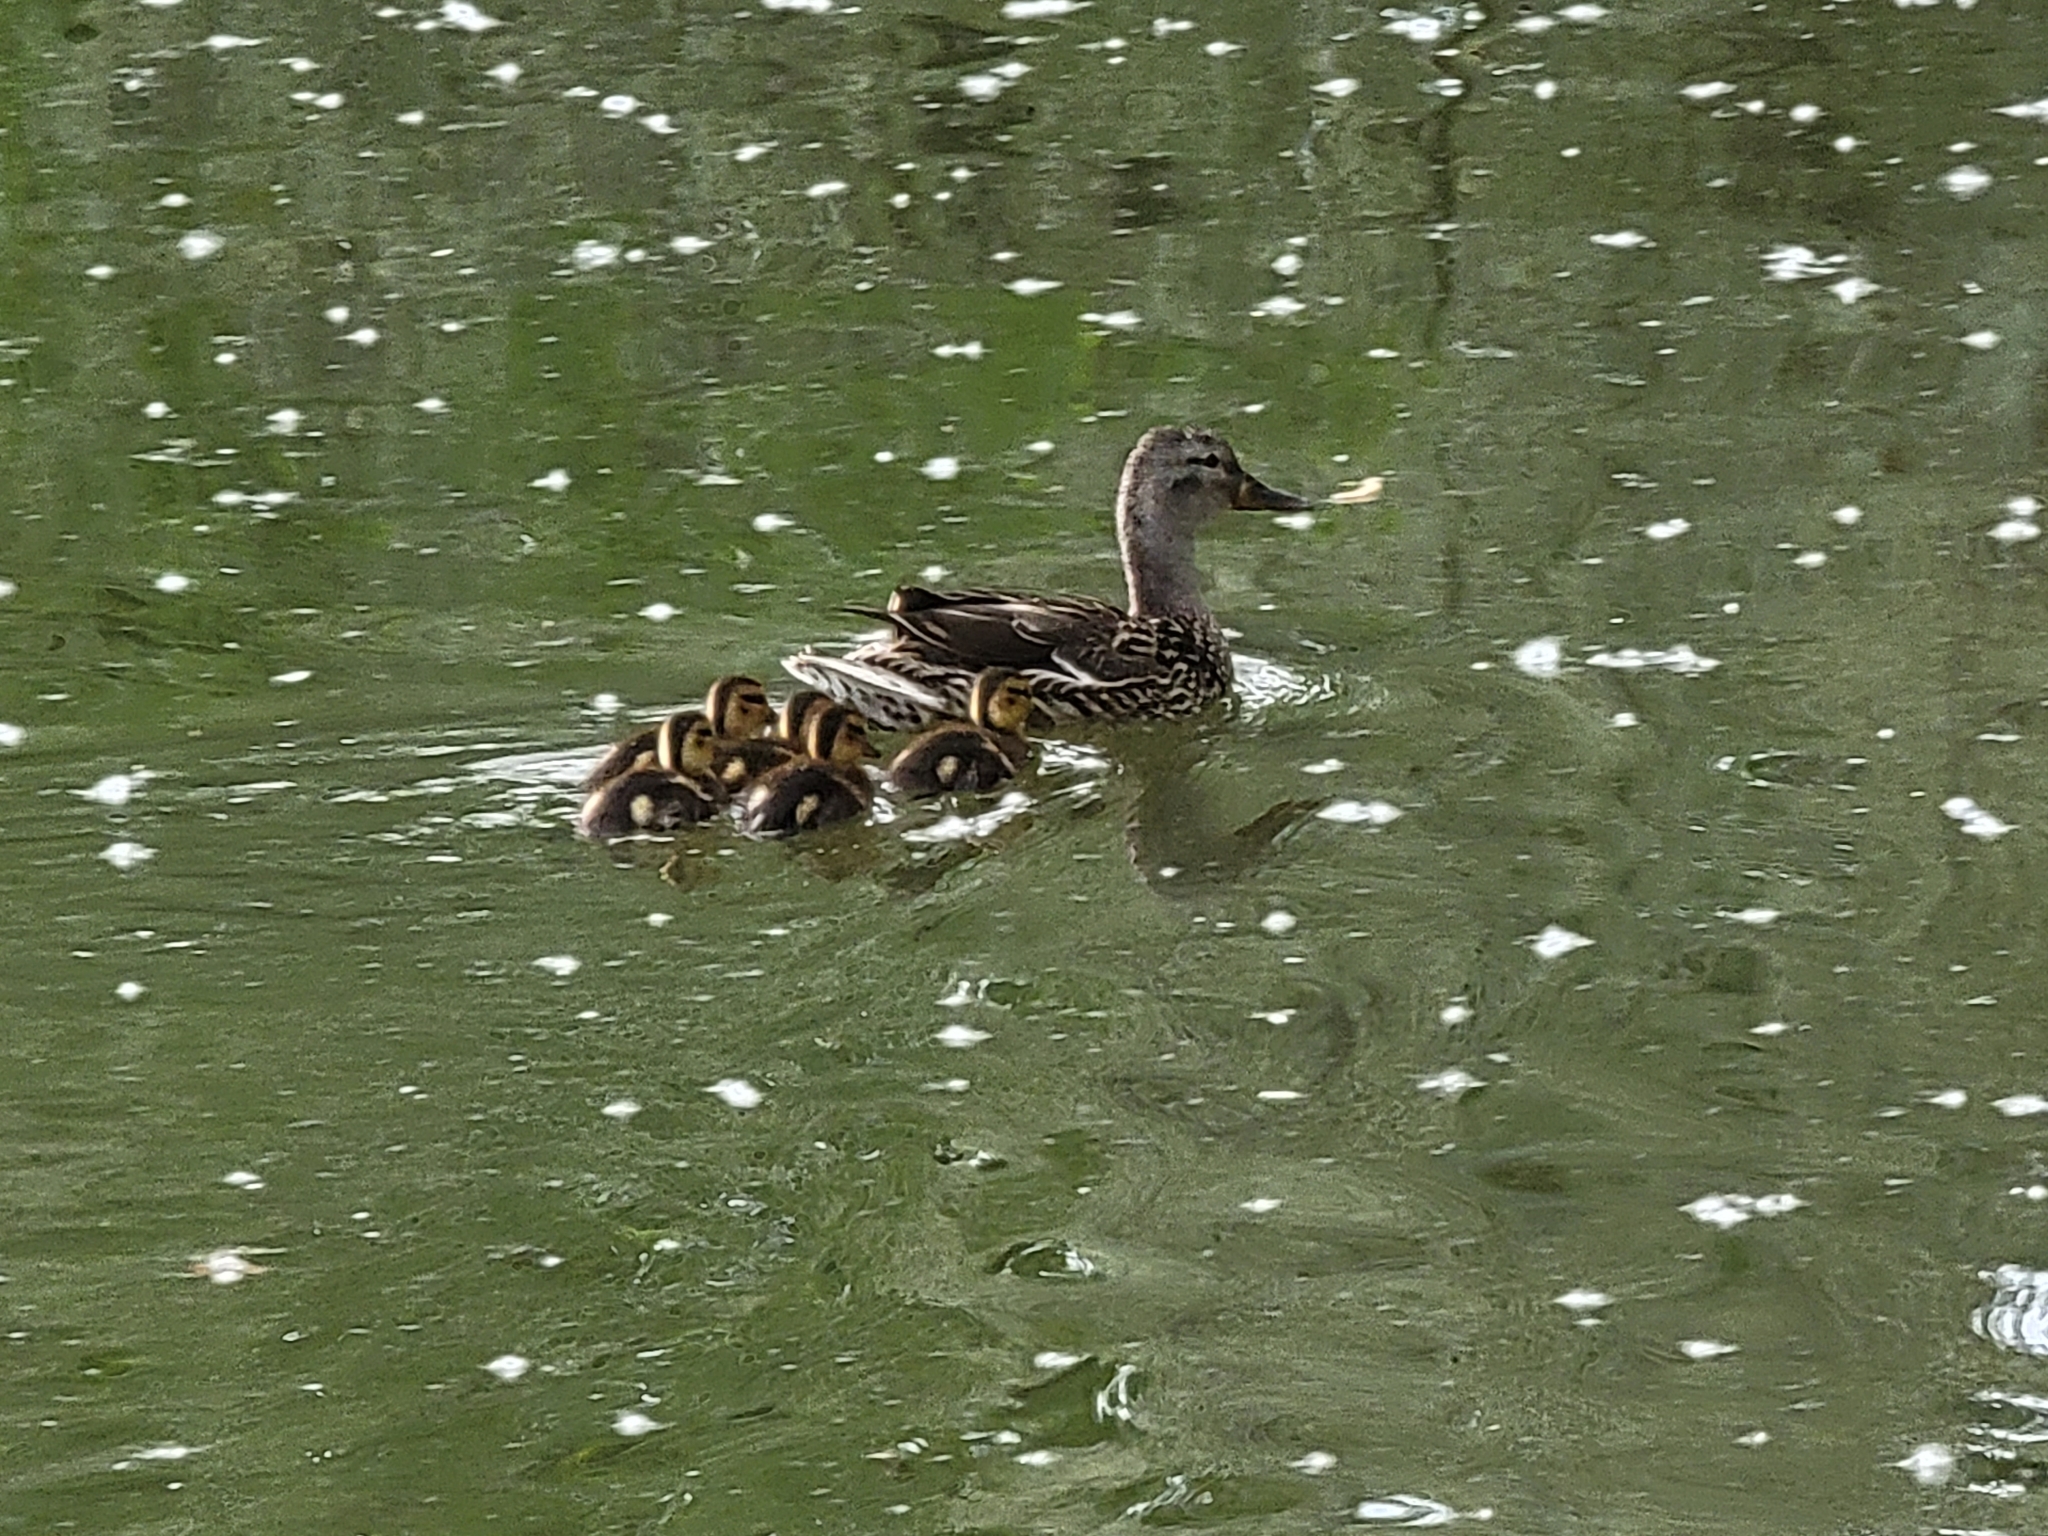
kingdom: Animalia
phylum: Chordata
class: Aves
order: Anseriformes
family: Anatidae
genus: Anas
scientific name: Anas platyrhynchos
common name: Mallard
